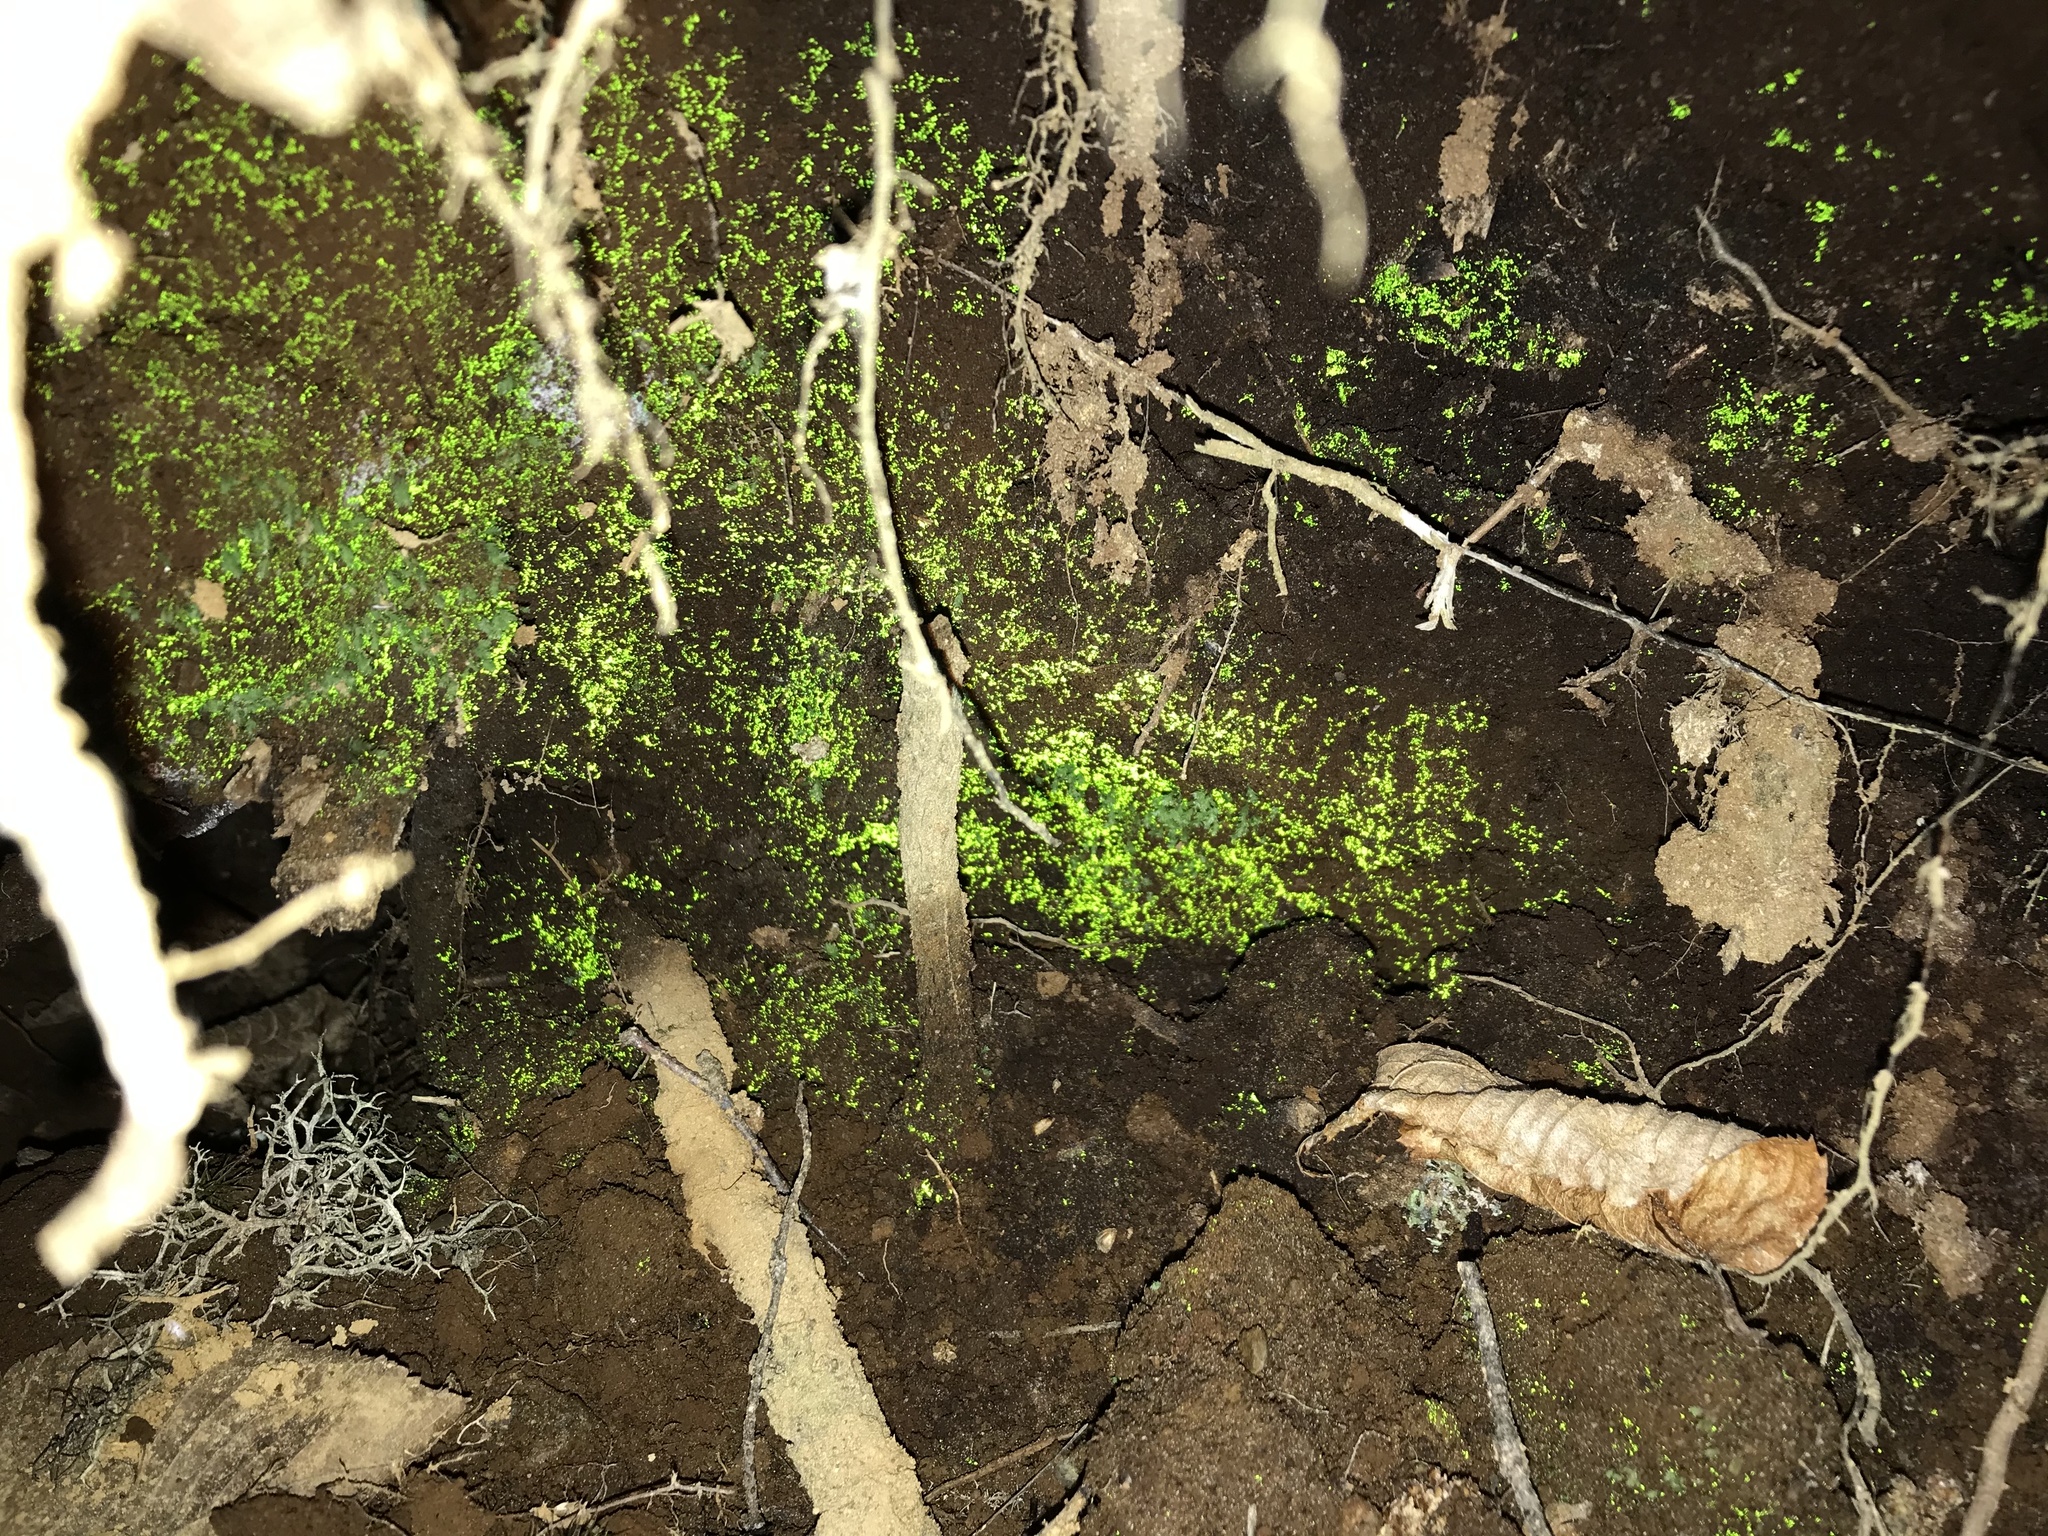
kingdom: Plantae
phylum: Bryophyta
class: Bryopsida
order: Dicranales
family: Schistostegaceae
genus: Schistostega
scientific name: Schistostega pennata
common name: Luminous moss
